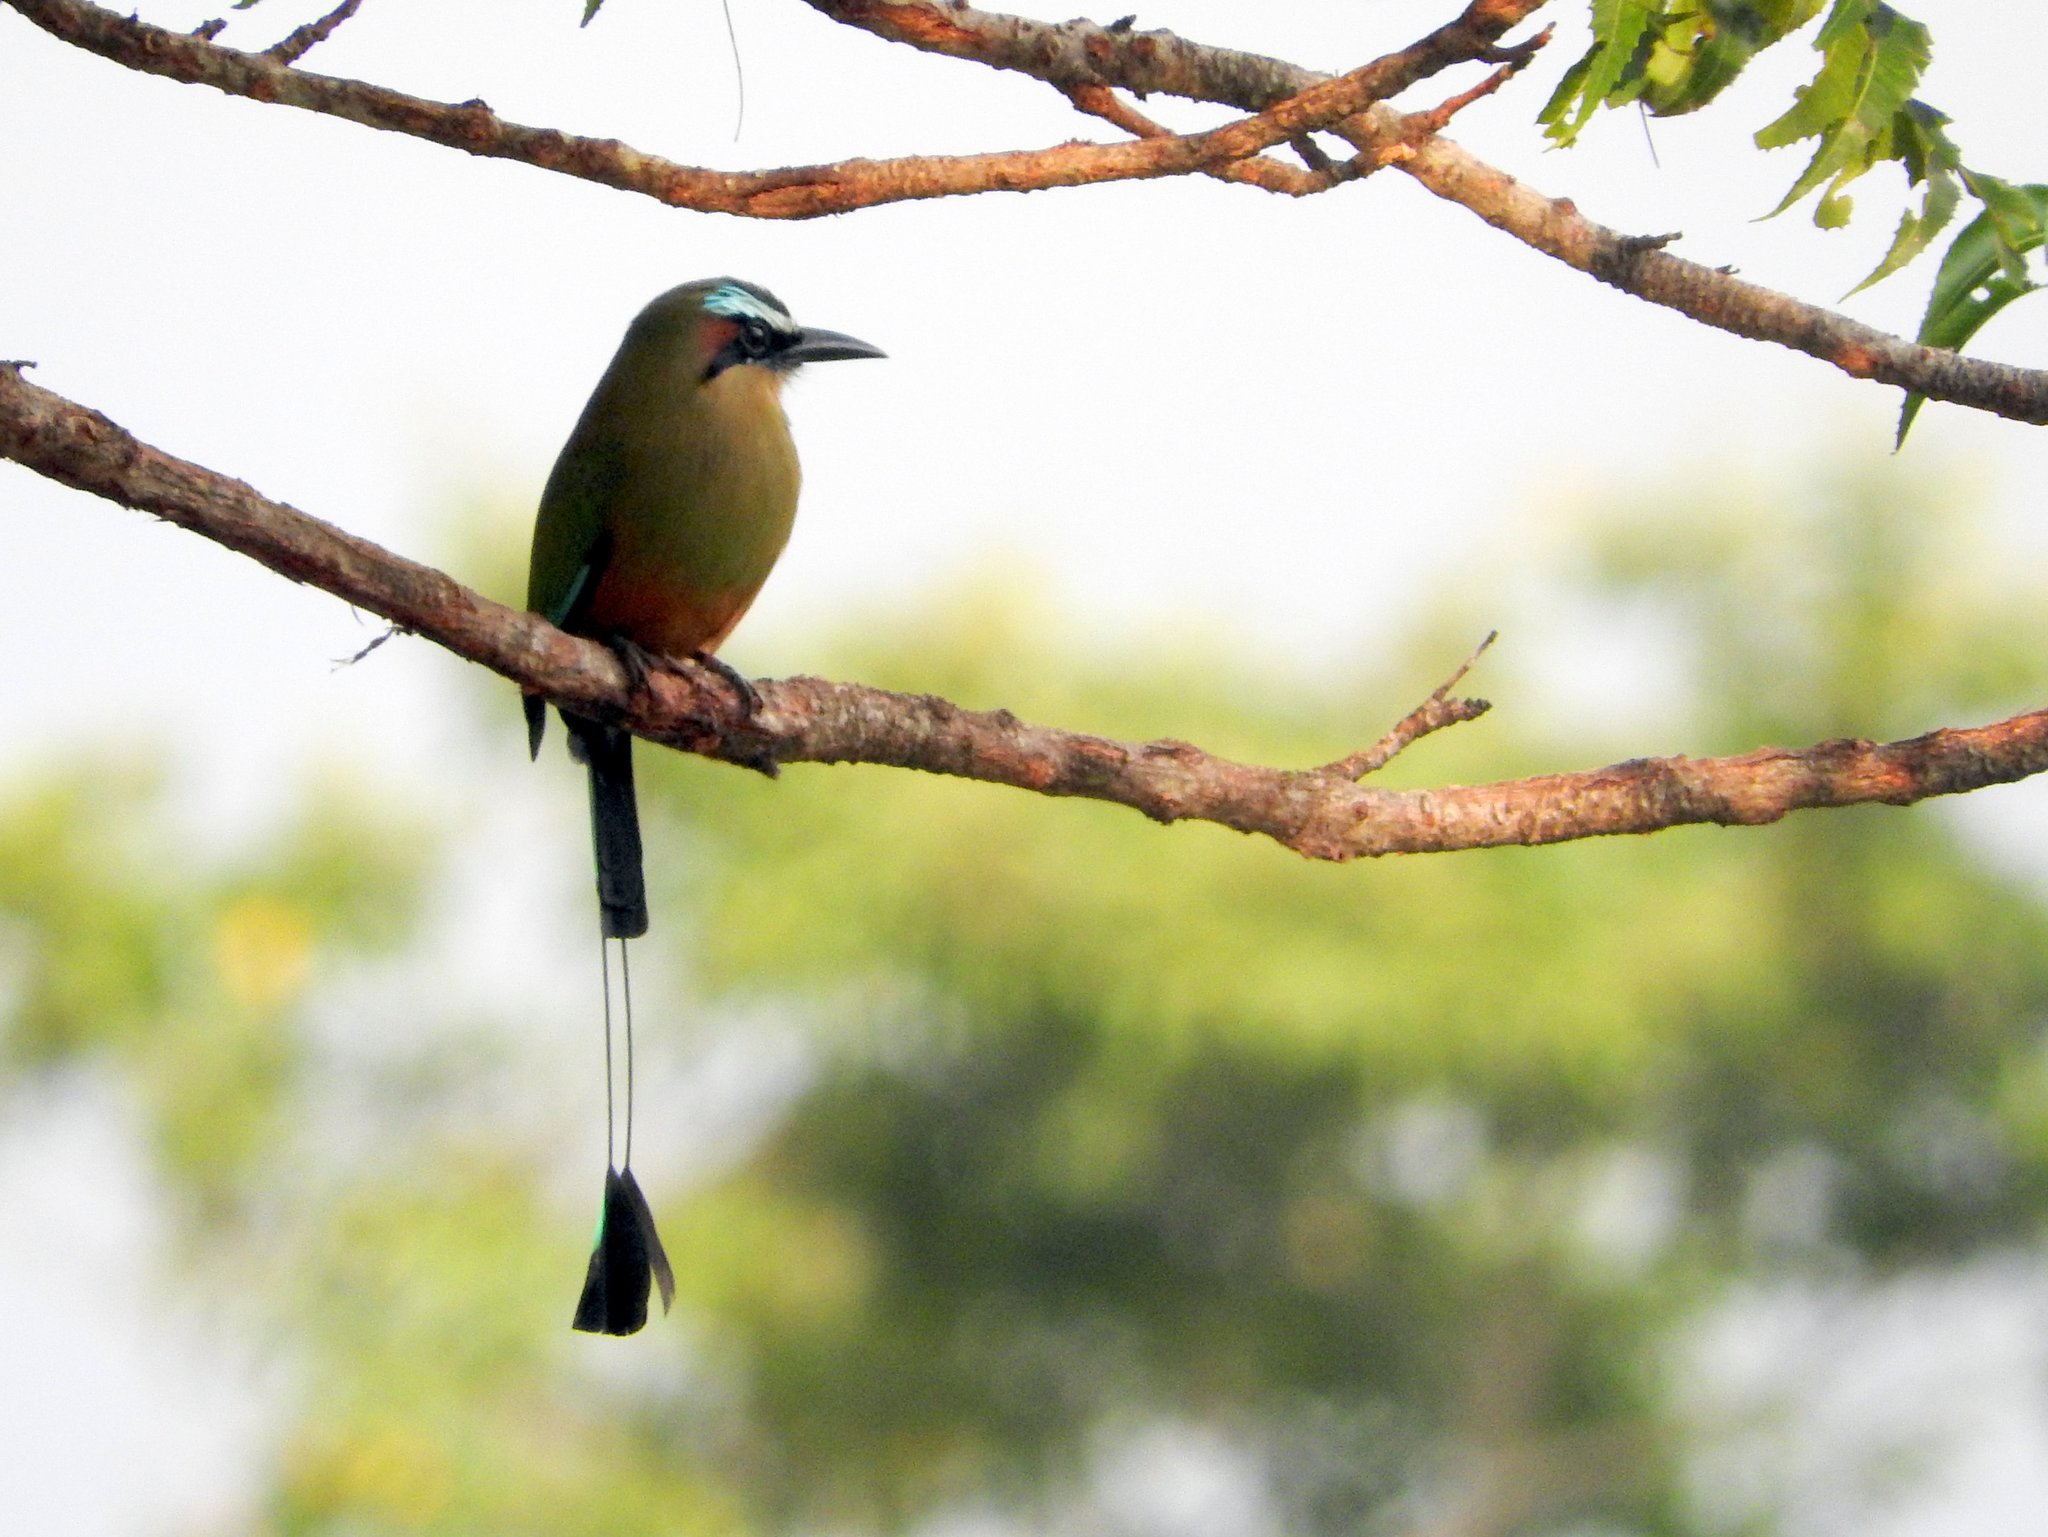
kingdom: Animalia
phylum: Chordata
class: Aves
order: Coraciiformes
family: Momotidae
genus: Eumomota
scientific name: Eumomota superciliosa
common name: Turquoise-browed motmot
